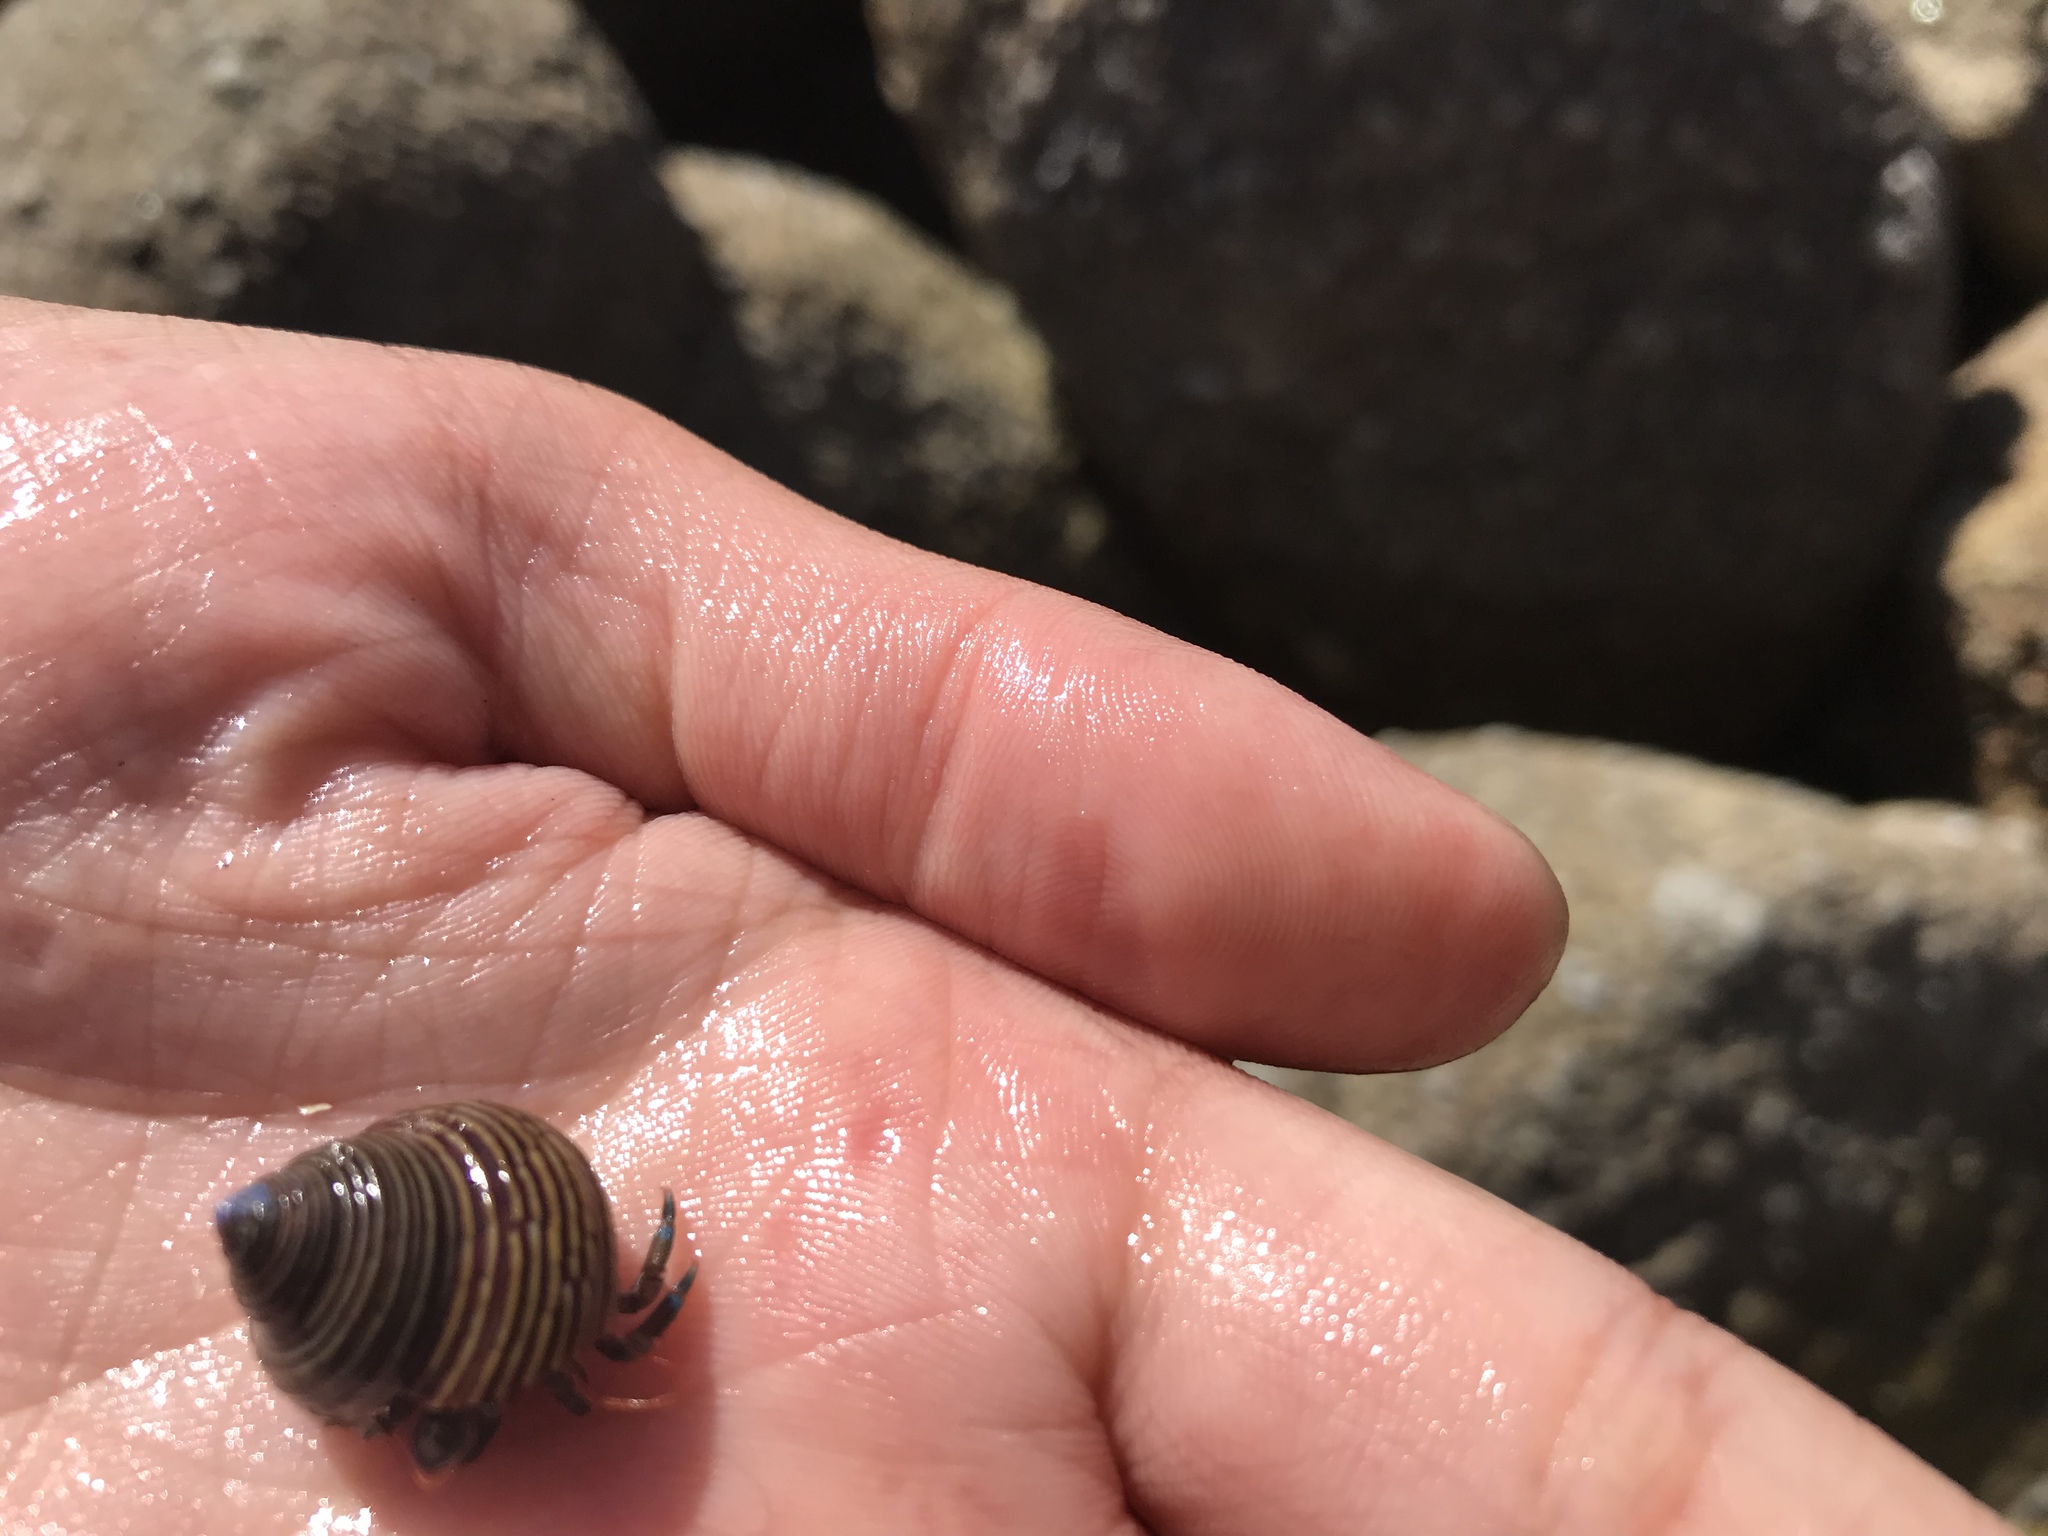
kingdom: Animalia
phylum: Arthropoda
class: Malacostraca
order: Decapoda
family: Paguridae
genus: Pagurus
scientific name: Pagurus samuelis
